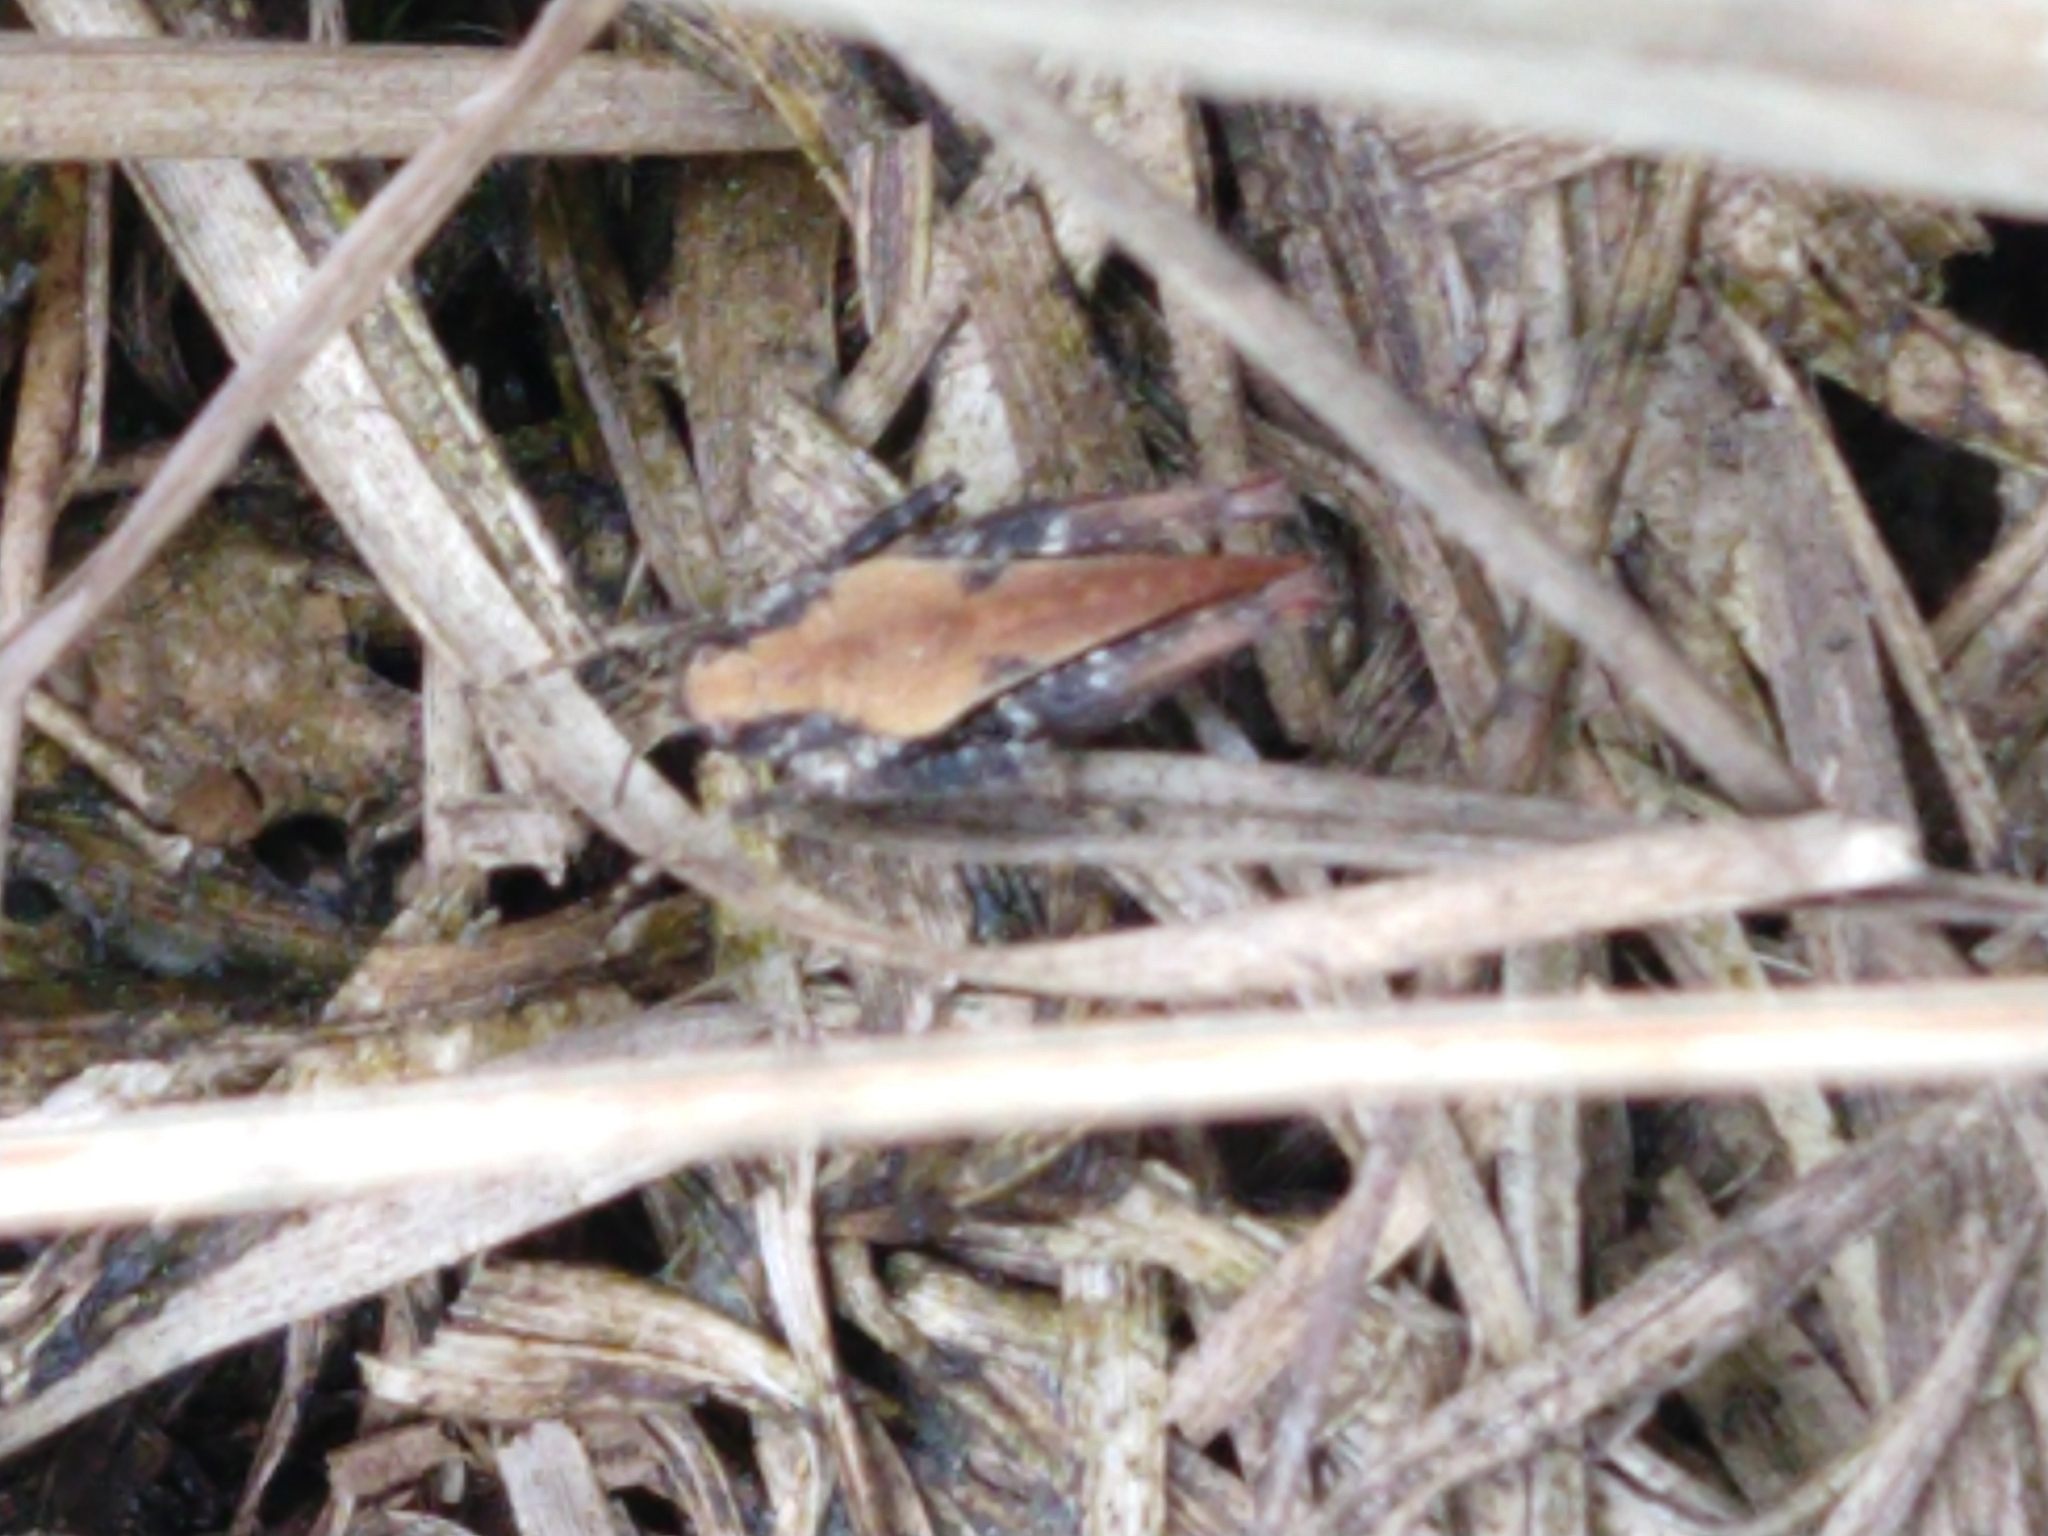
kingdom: Animalia
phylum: Arthropoda
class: Insecta
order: Orthoptera
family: Tetrigidae
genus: Tetrix
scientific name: Tetrix undulata
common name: Common groundhopper
